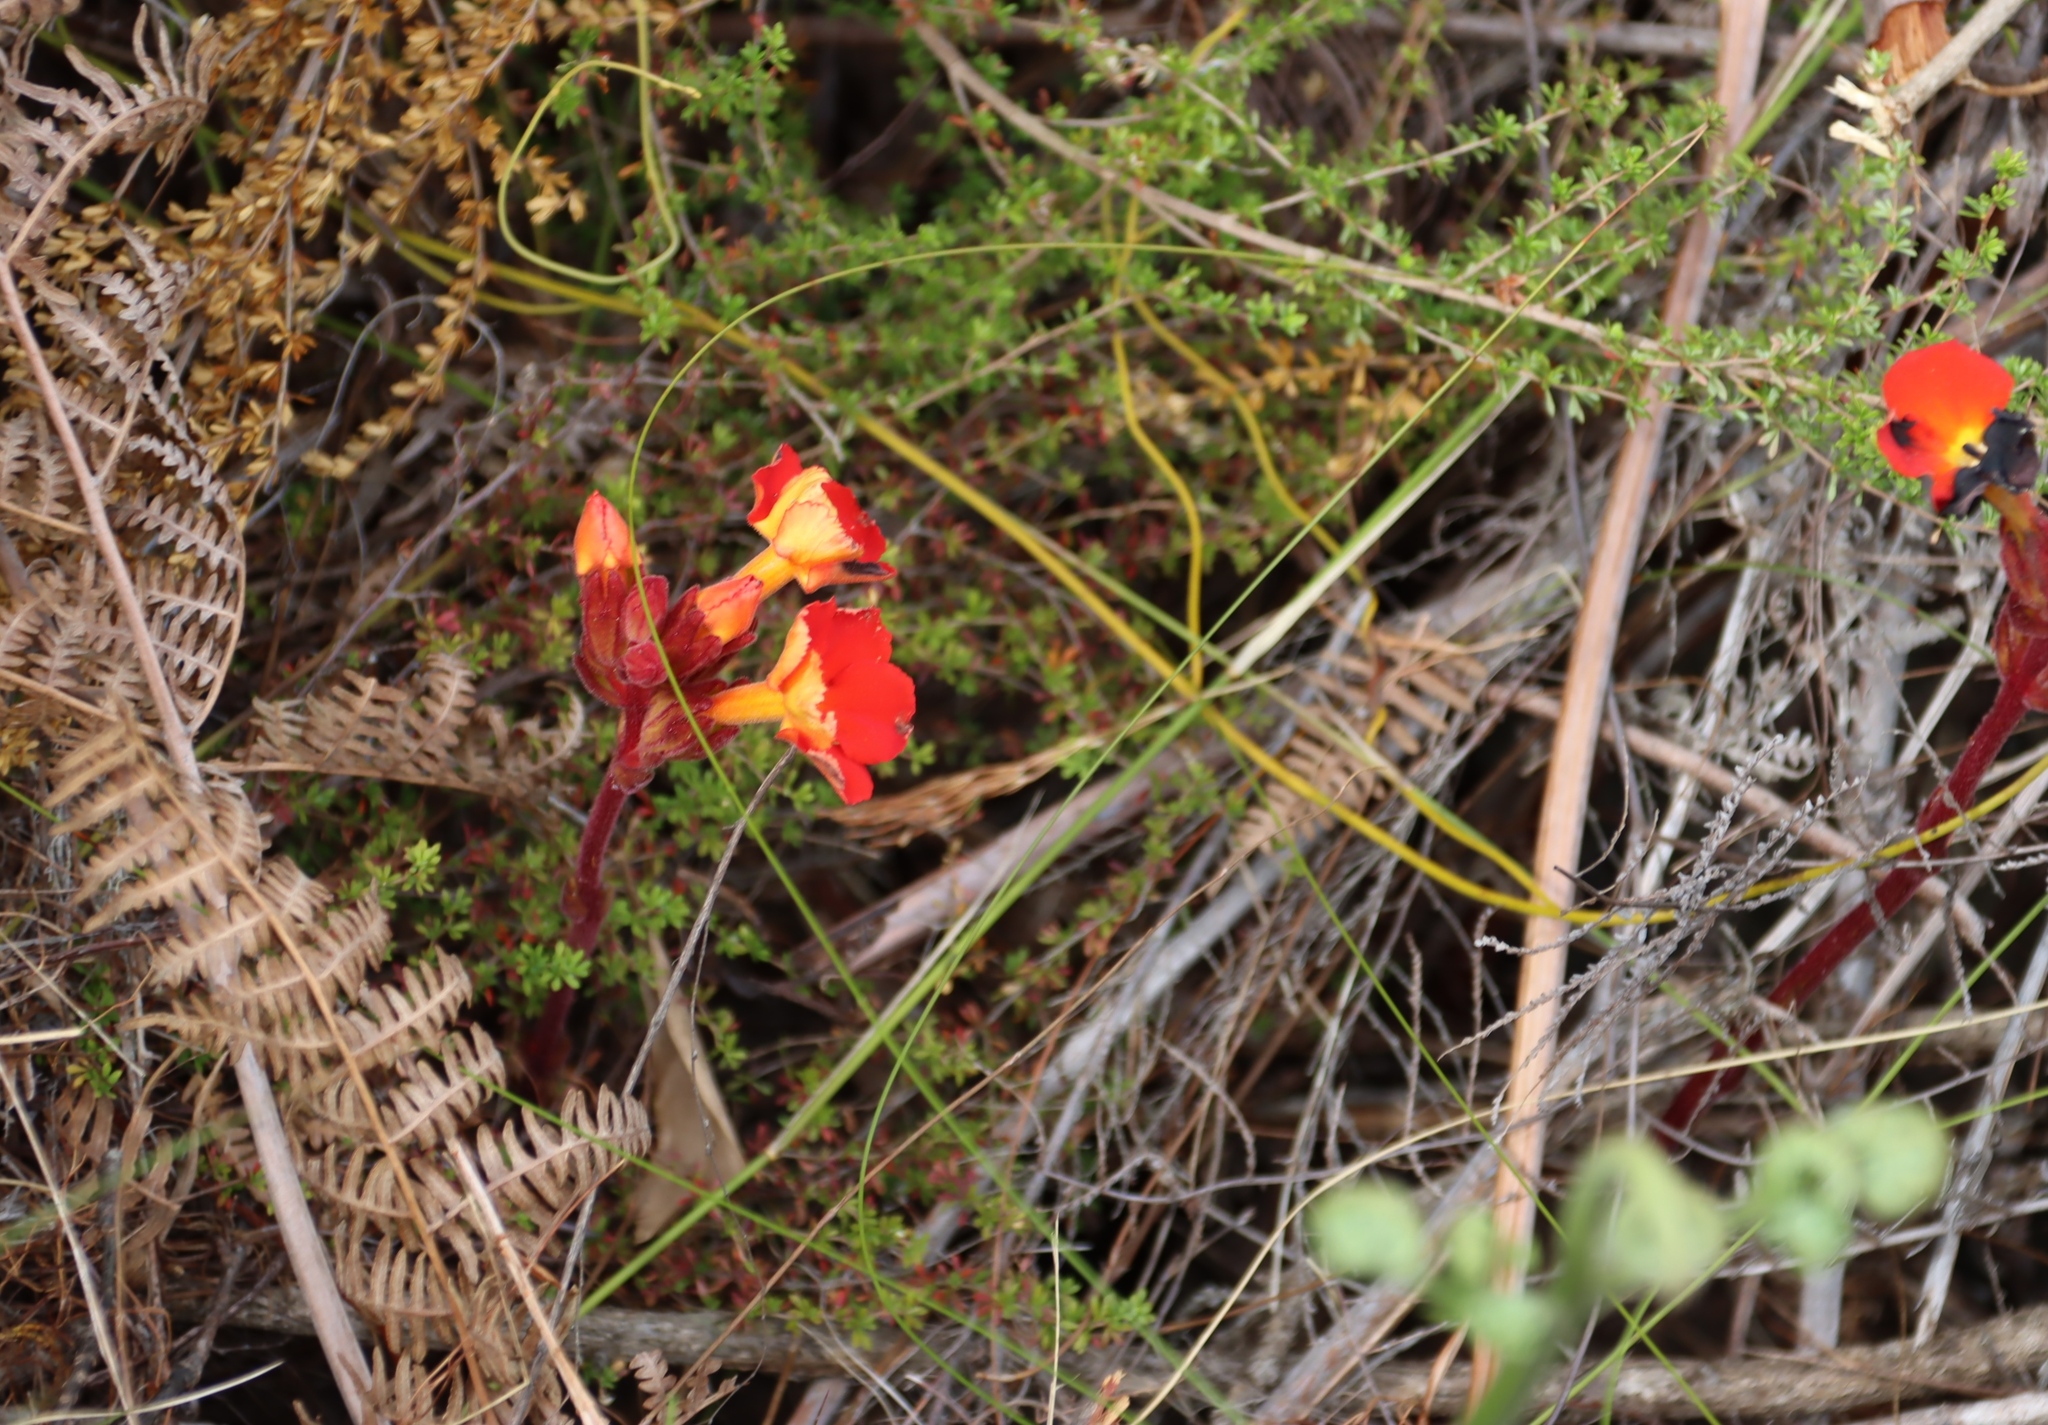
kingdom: Plantae
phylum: Tracheophyta
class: Magnoliopsida
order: Lamiales
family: Orobanchaceae
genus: Harveya
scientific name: Harveya stenosiphon
